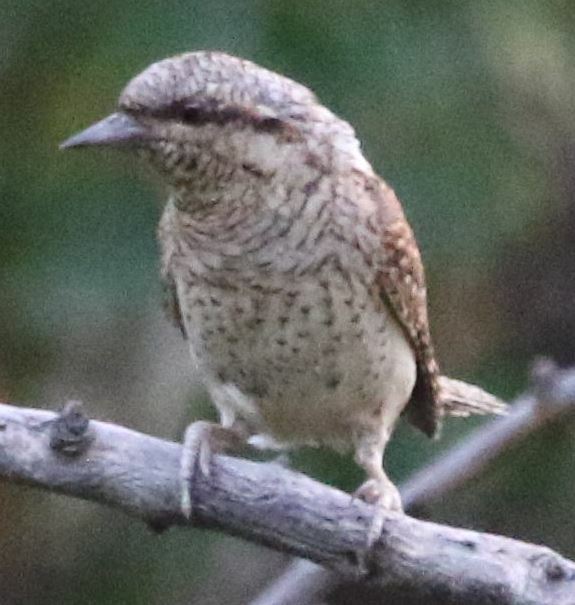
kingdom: Animalia
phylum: Chordata
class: Aves
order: Piciformes
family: Picidae
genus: Jynx
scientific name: Jynx torquilla
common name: Eurasian wryneck
